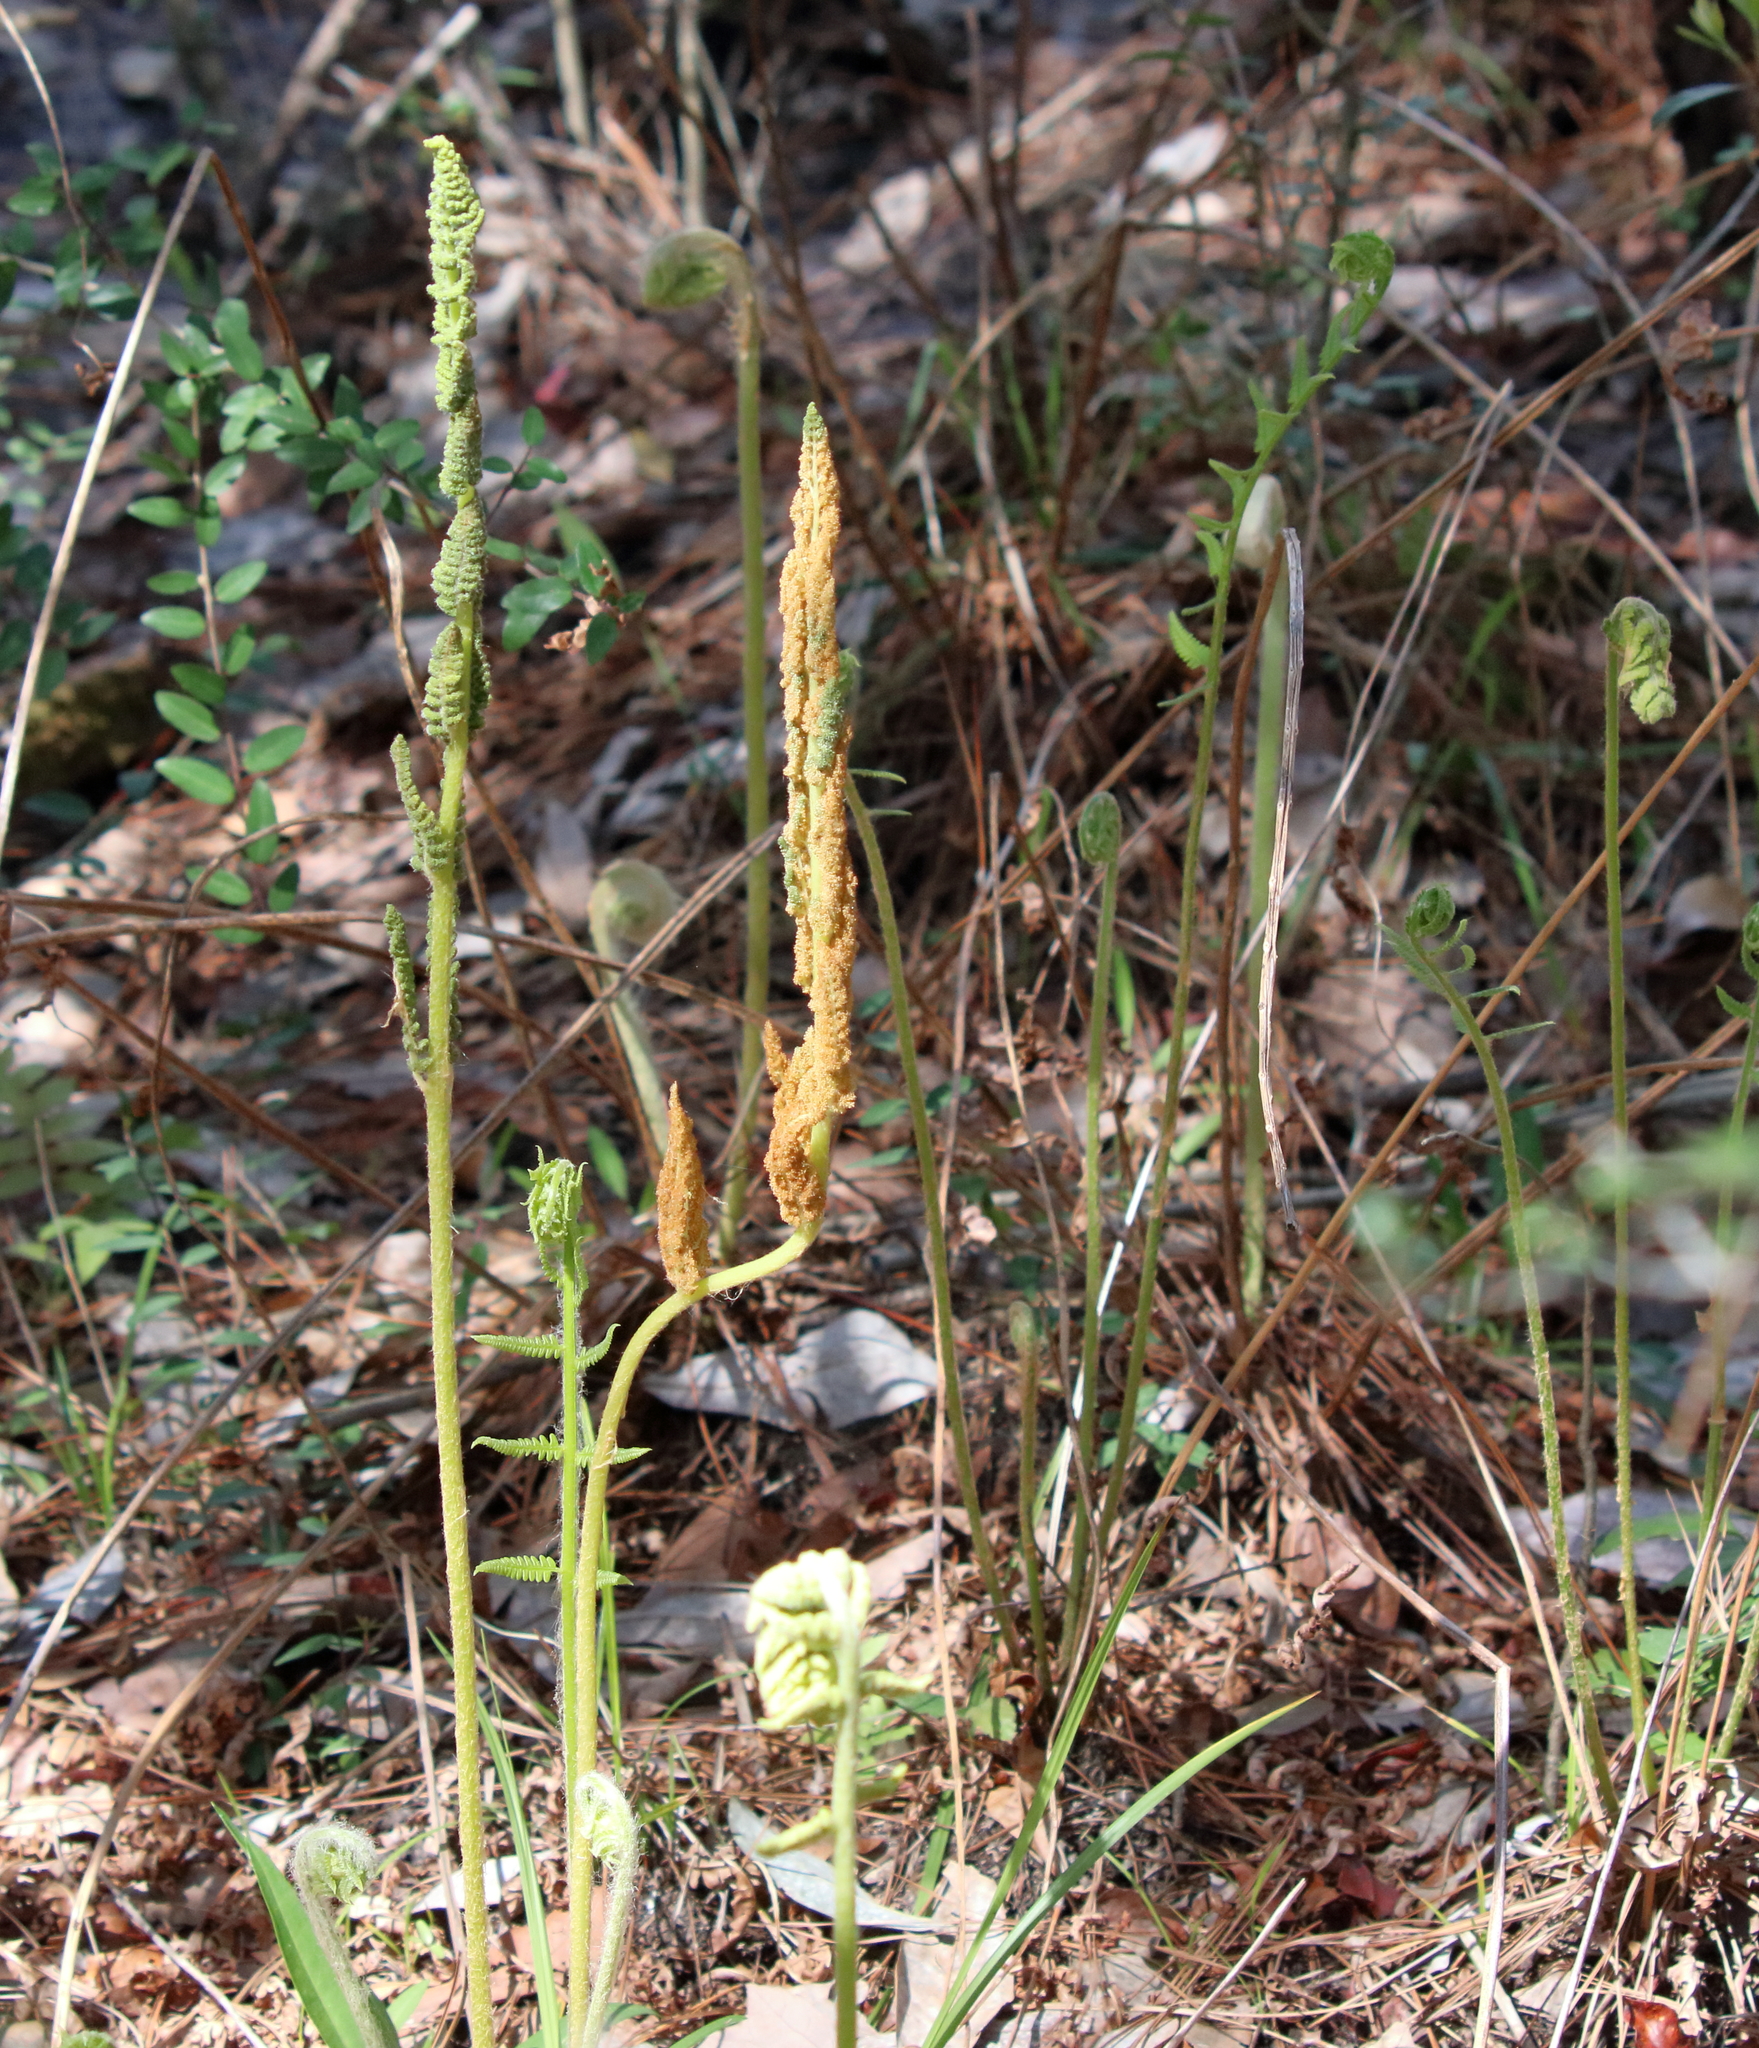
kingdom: Plantae
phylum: Tracheophyta
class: Polypodiopsida
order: Osmundales
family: Osmundaceae
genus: Osmundastrum
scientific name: Osmundastrum cinnamomeum
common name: Cinnamon fern
